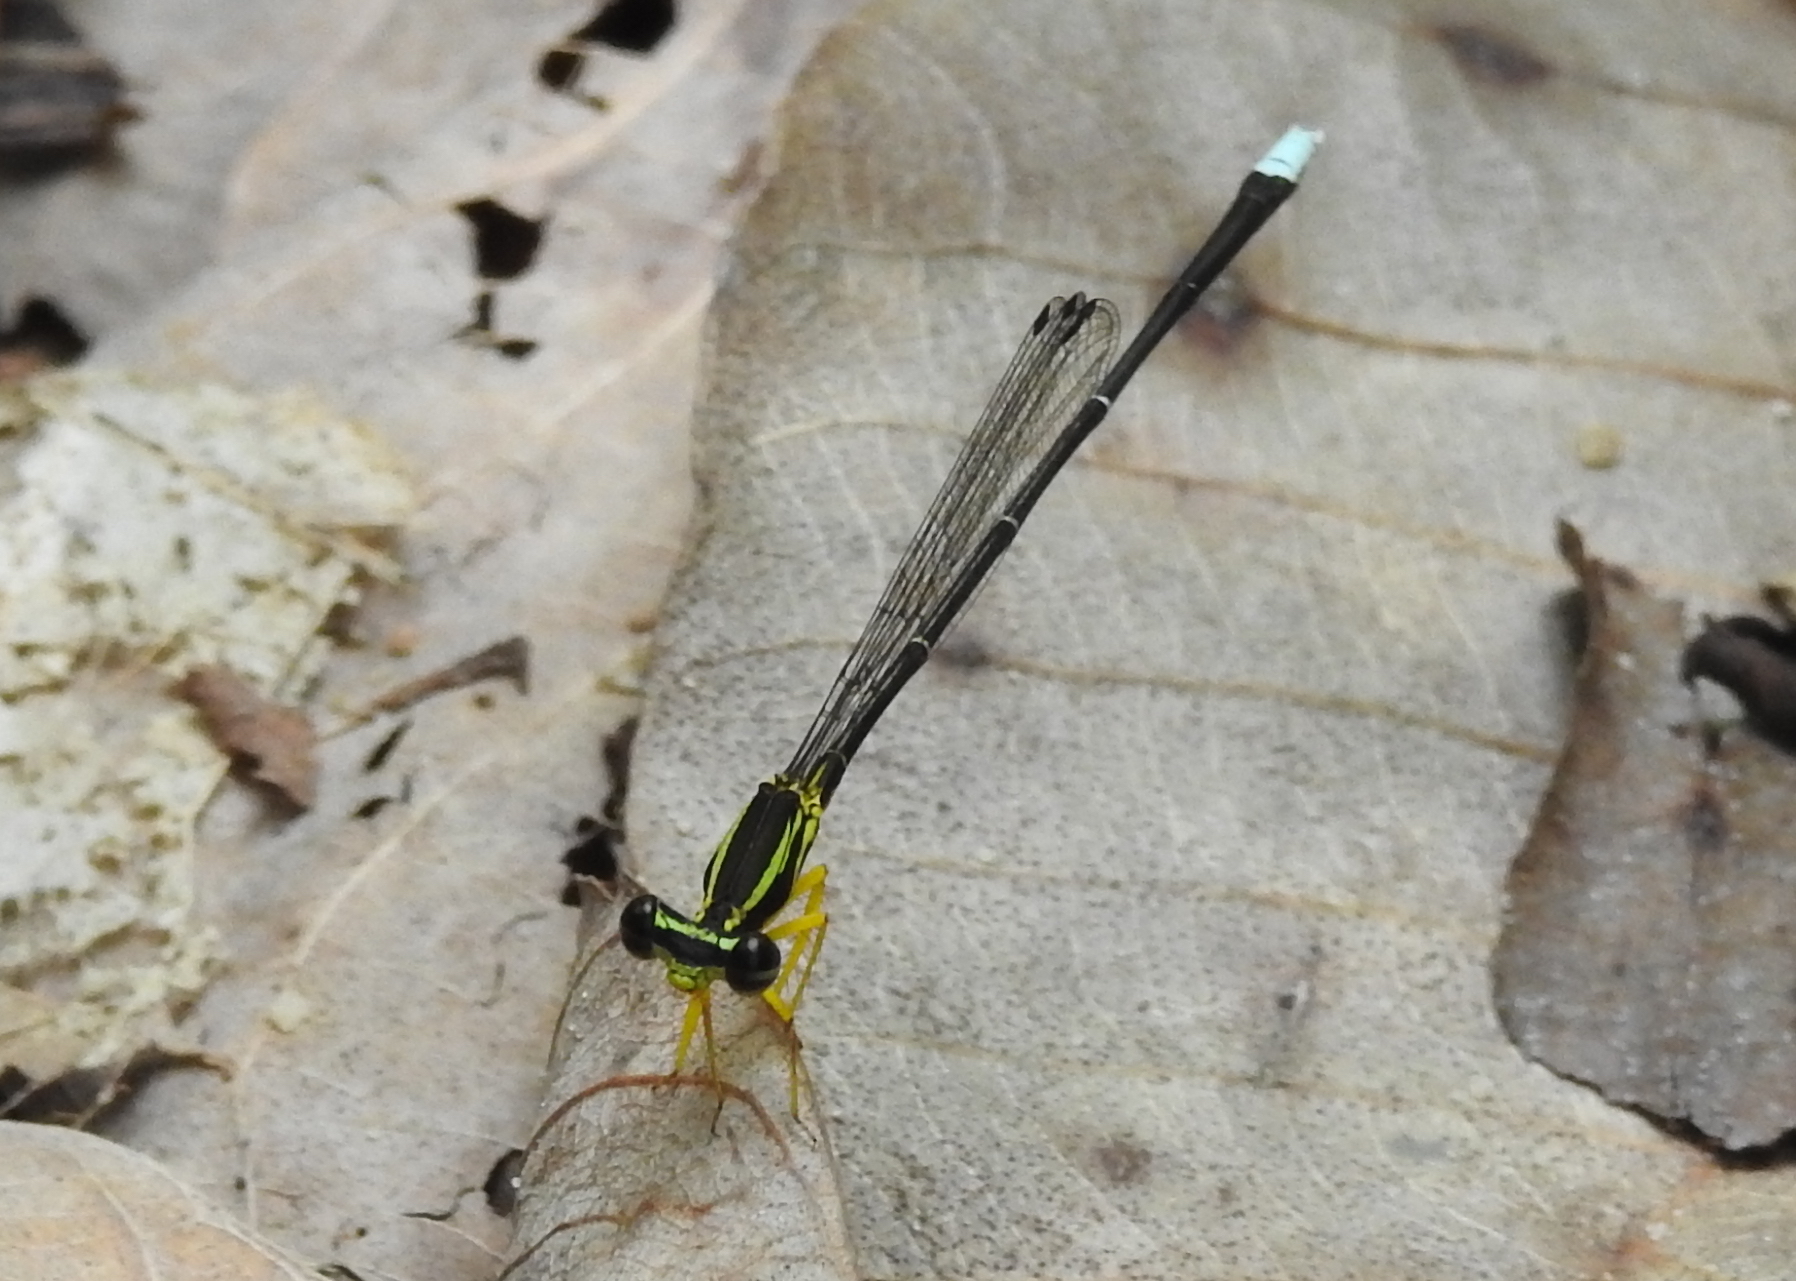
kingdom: Animalia
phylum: Arthropoda
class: Insecta
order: Odonata
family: Platycnemididae
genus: Copera
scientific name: Copera marginipes
